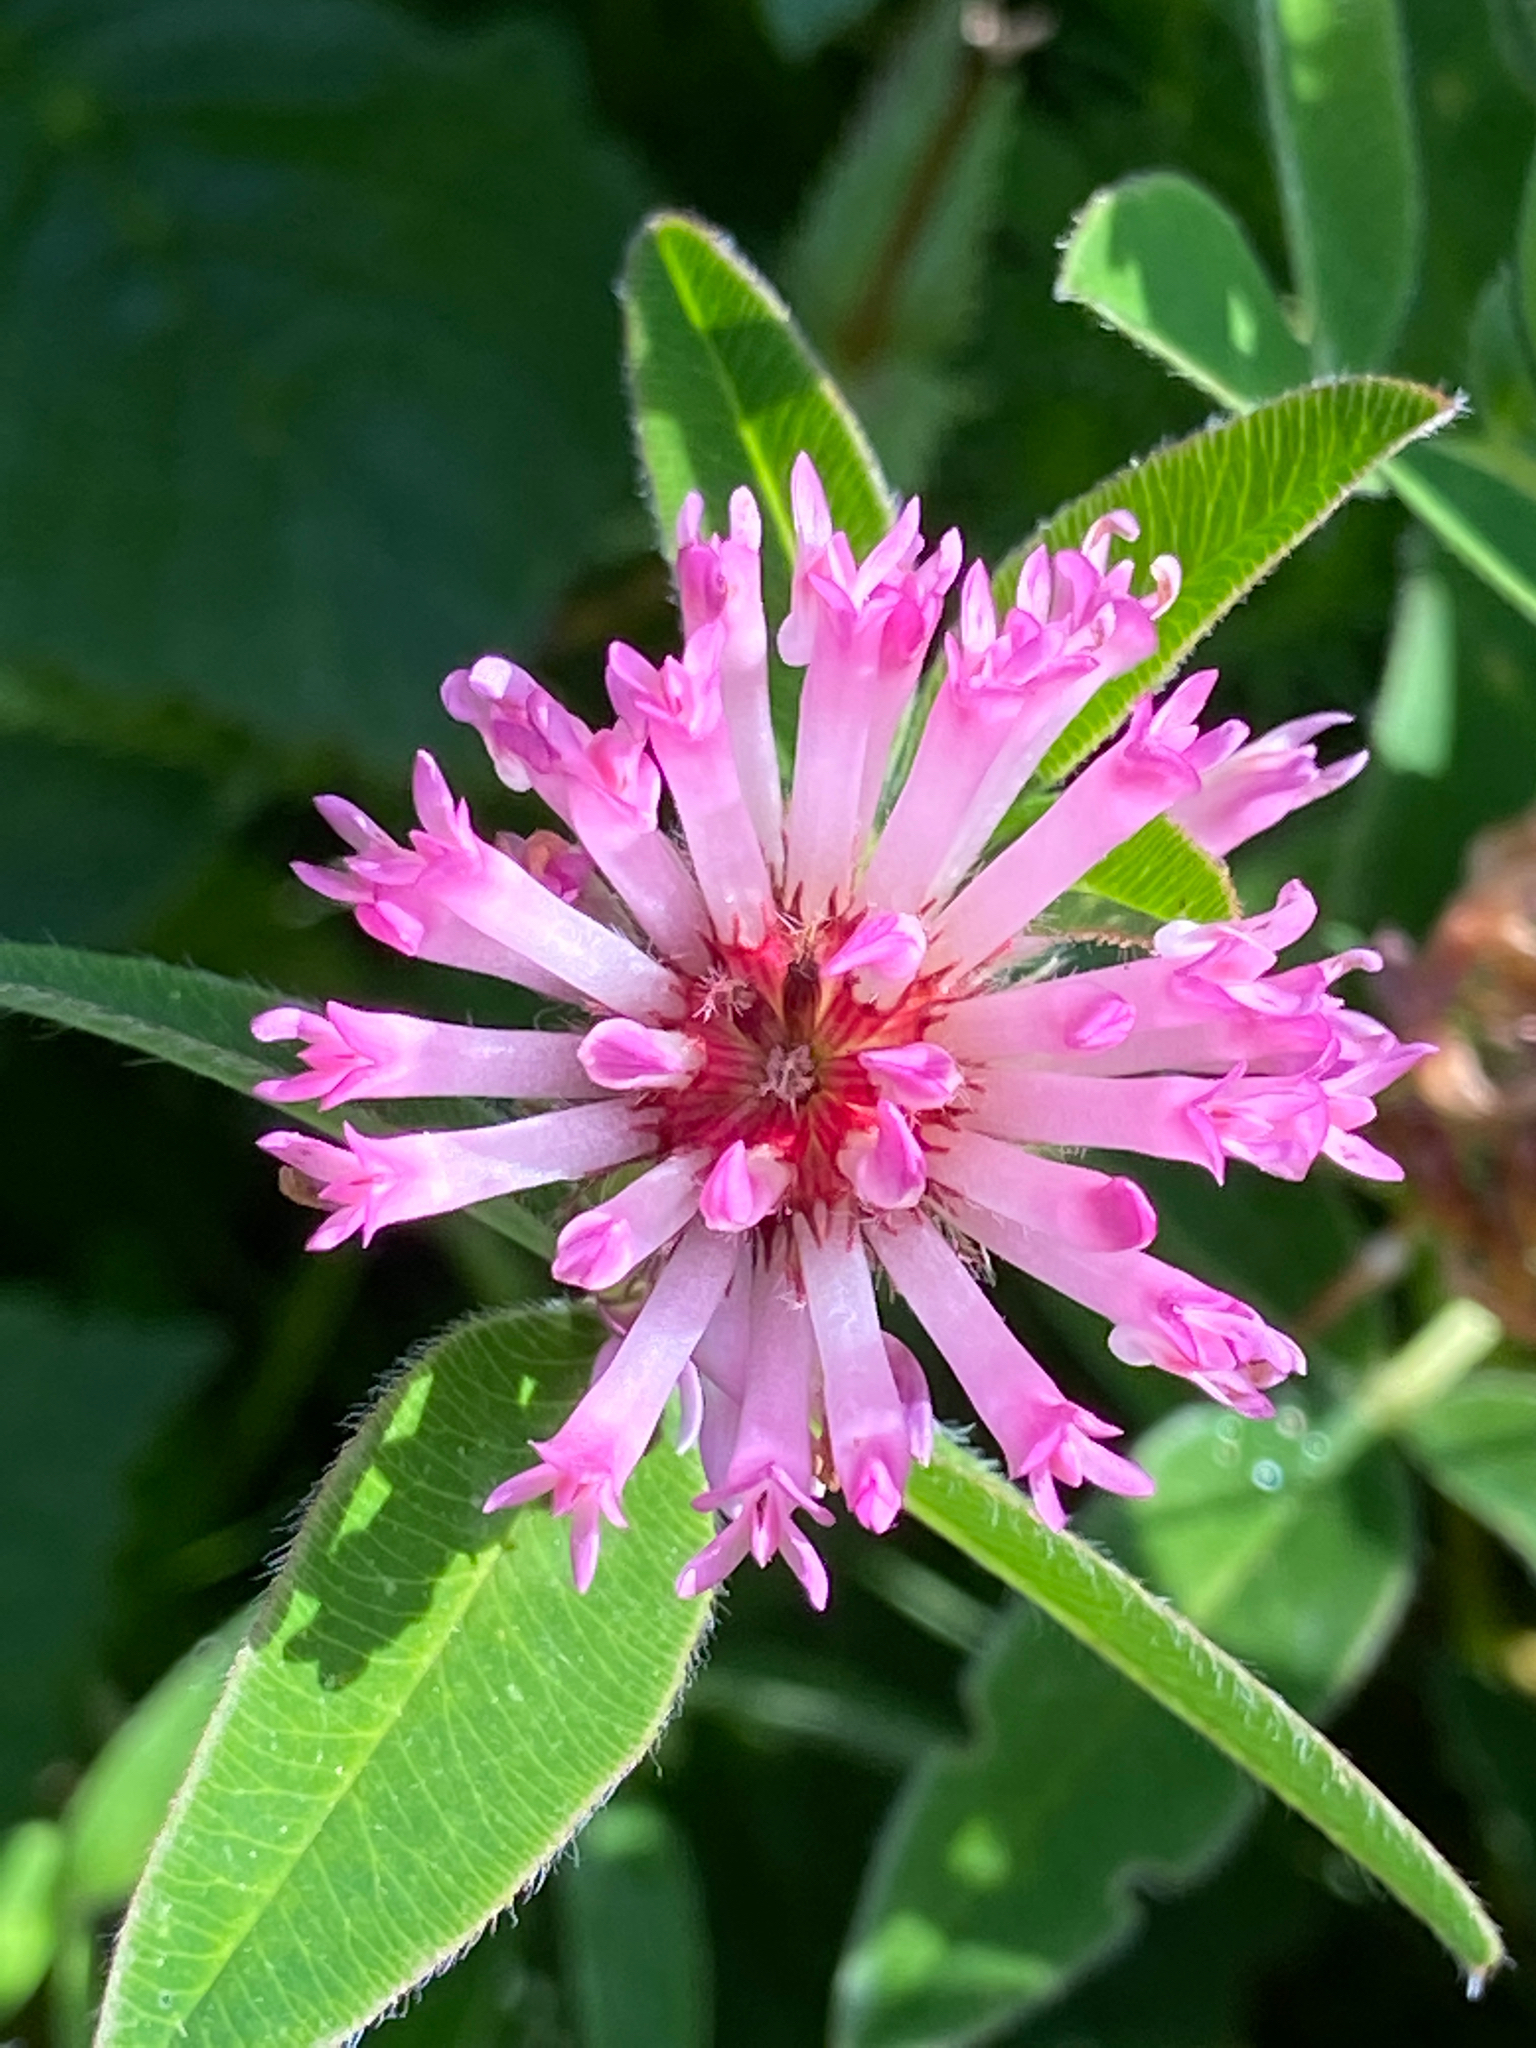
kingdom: Plantae
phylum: Tracheophyta
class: Magnoliopsida
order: Fabales
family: Fabaceae
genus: Trifolium
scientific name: Trifolium medium
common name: Zigzag clover
